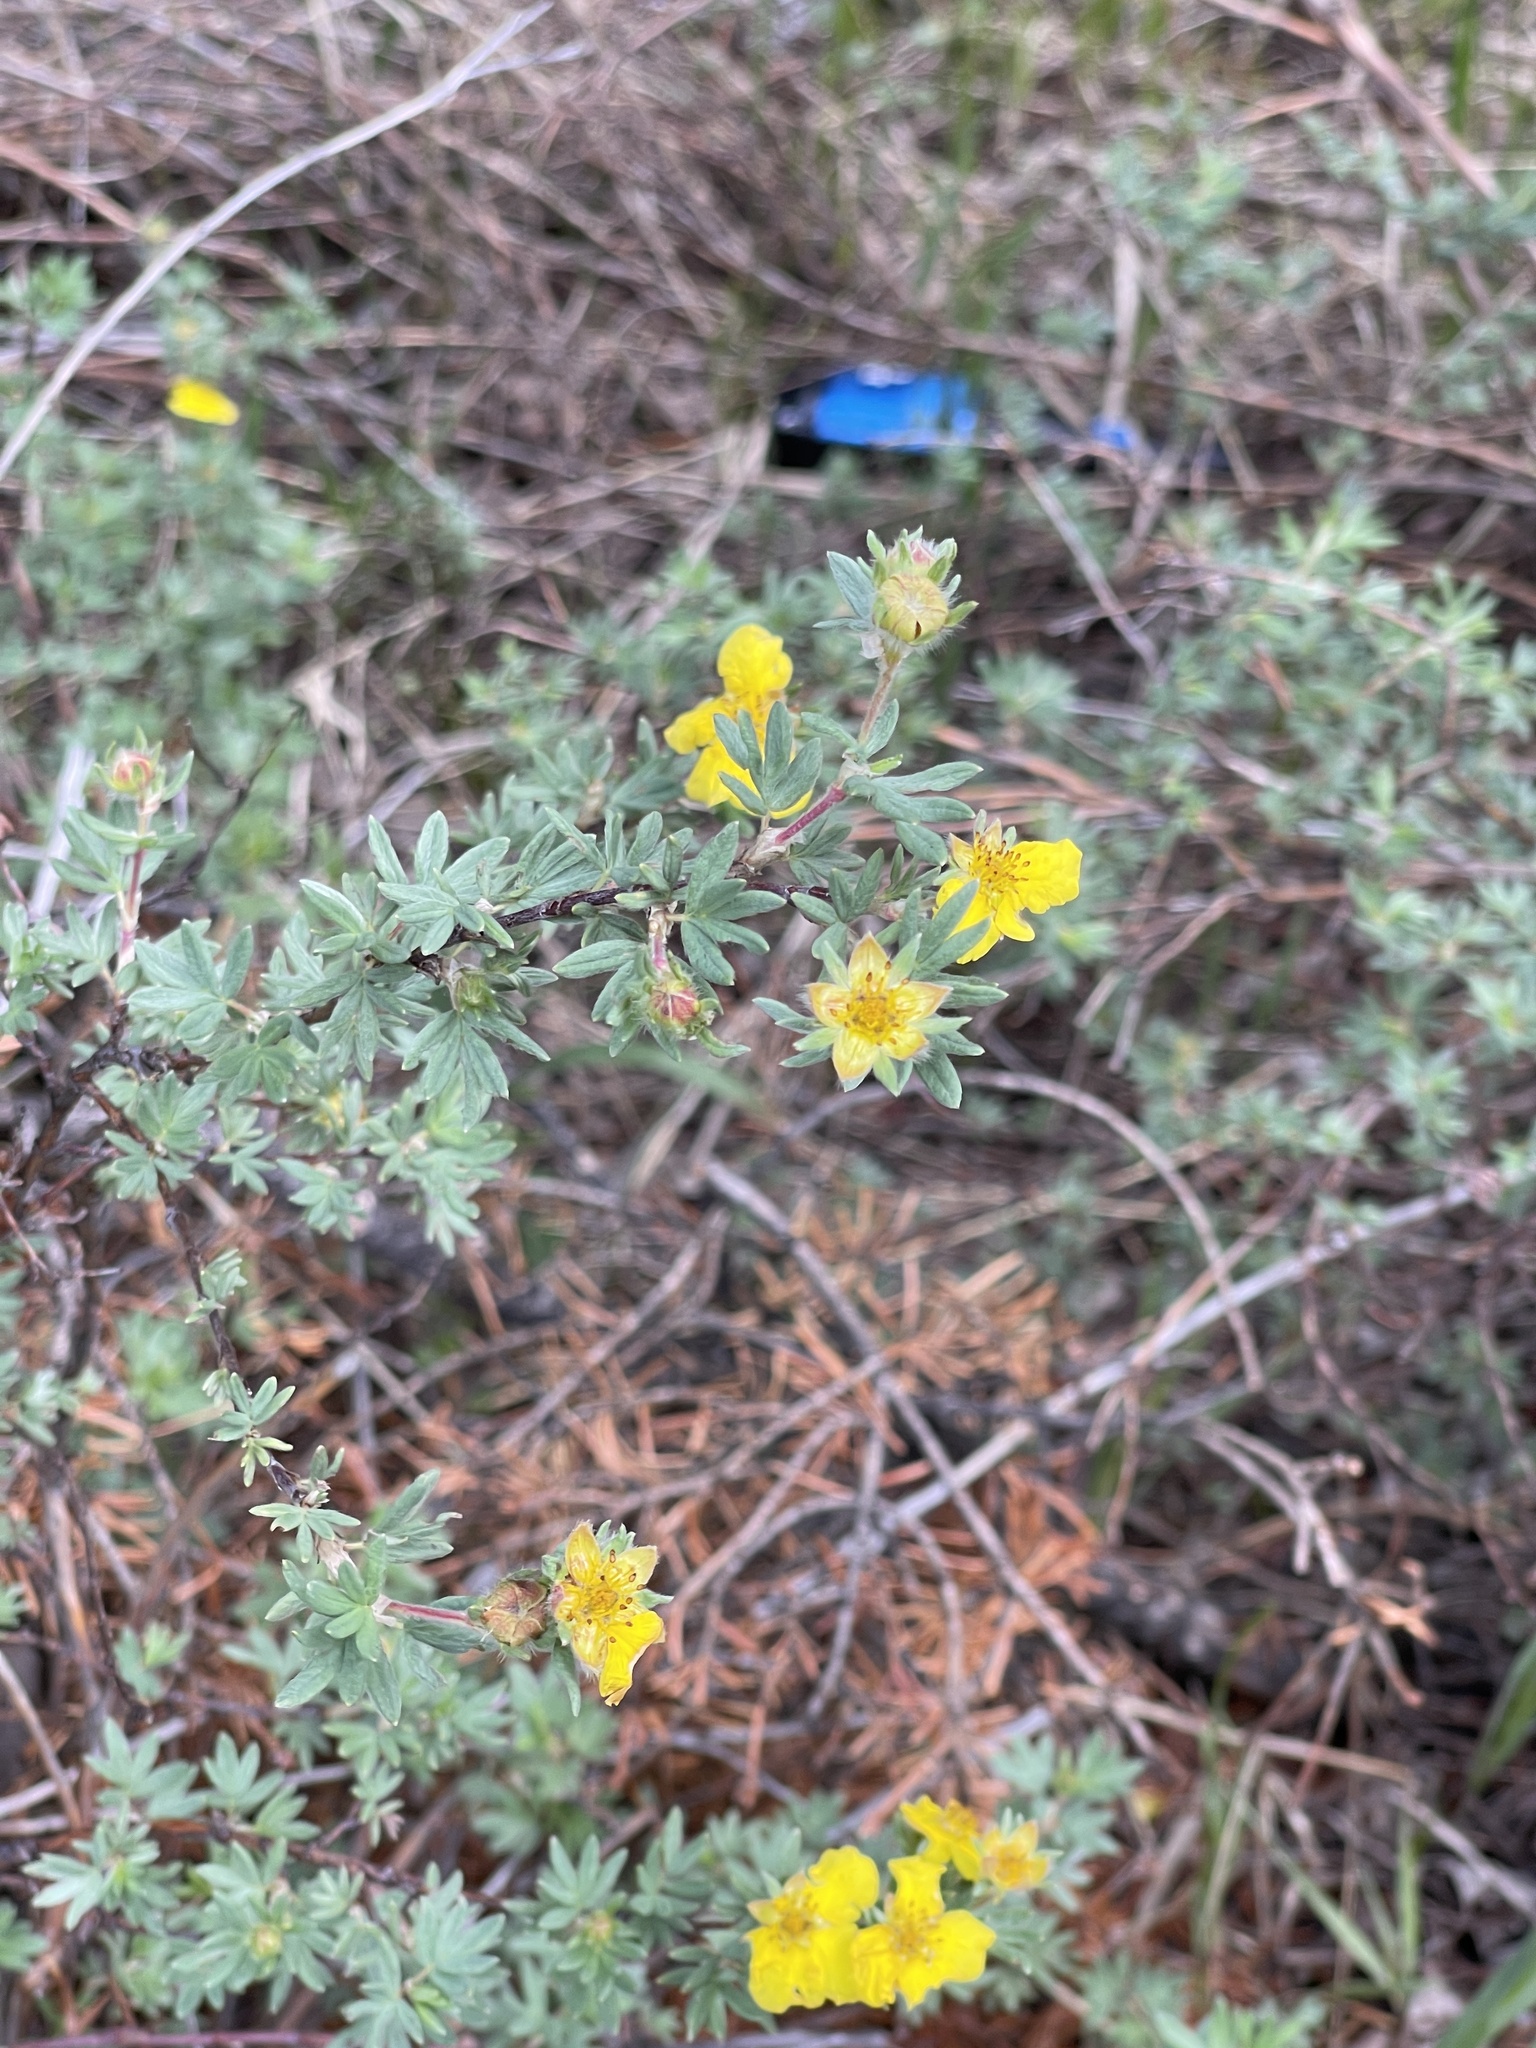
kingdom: Plantae
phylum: Tracheophyta
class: Magnoliopsida
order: Rosales
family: Rosaceae
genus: Dasiphora
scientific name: Dasiphora fruticosa
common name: Shrubby cinquefoil
